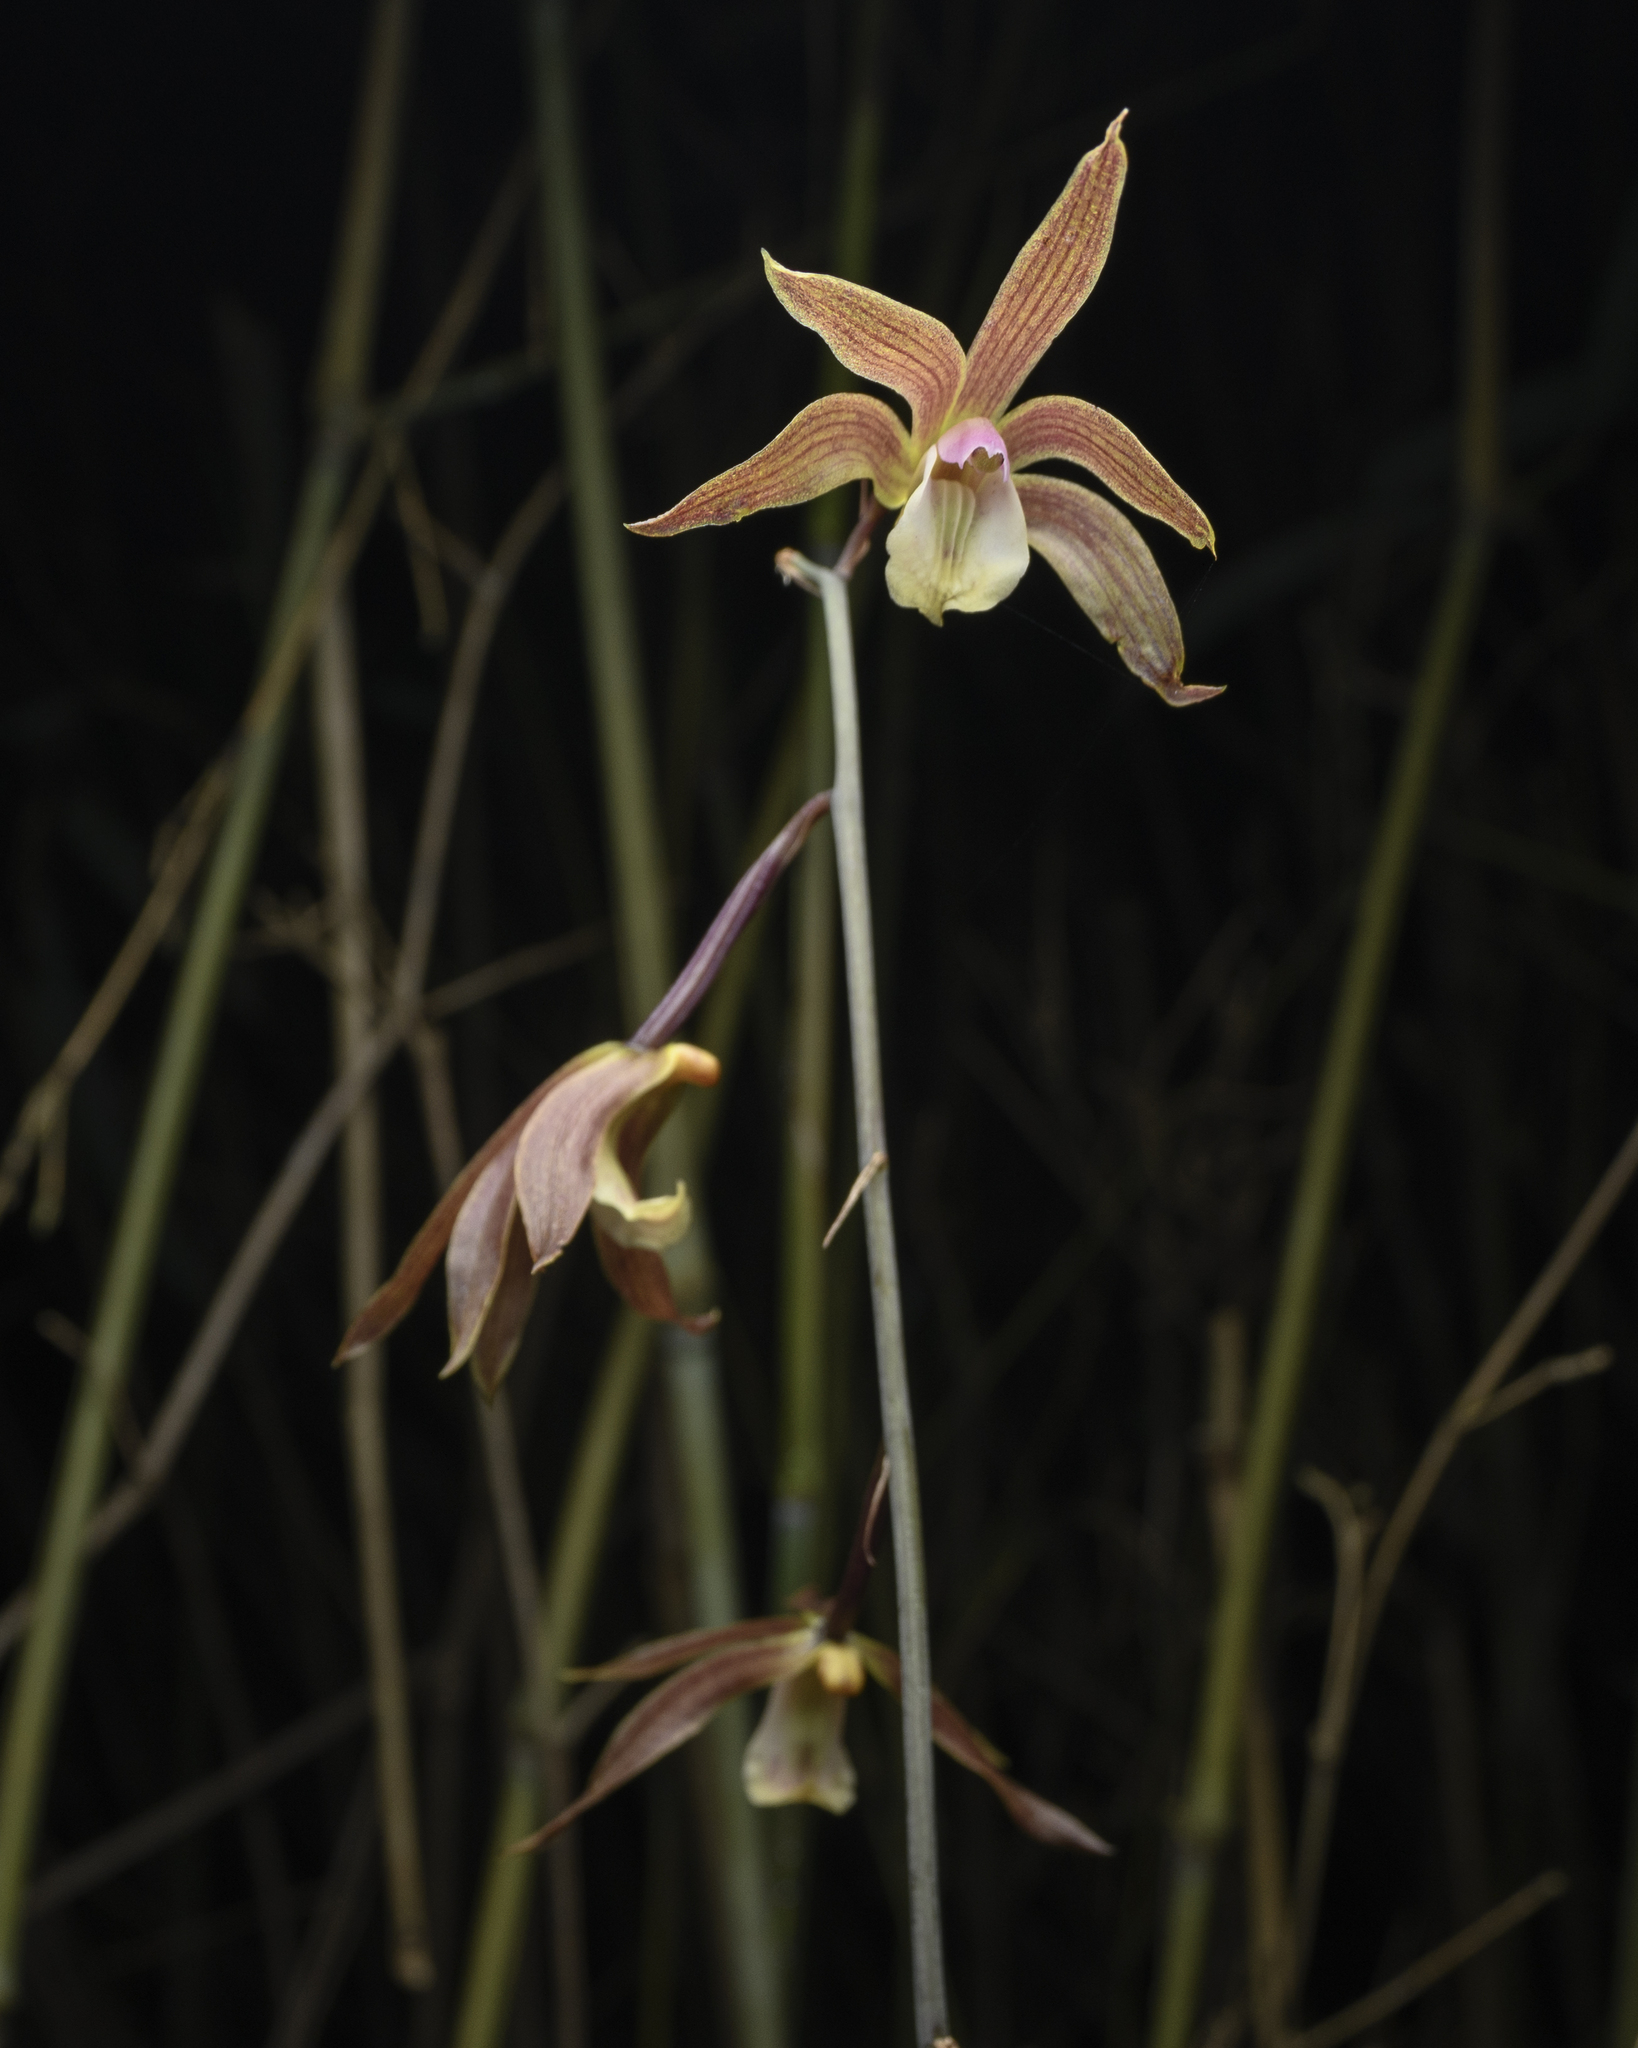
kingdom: Plantae
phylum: Tracheophyta
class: Liliopsida
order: Asparagales
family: Orchidaceae
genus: Ania
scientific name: Ania hongkongensis
